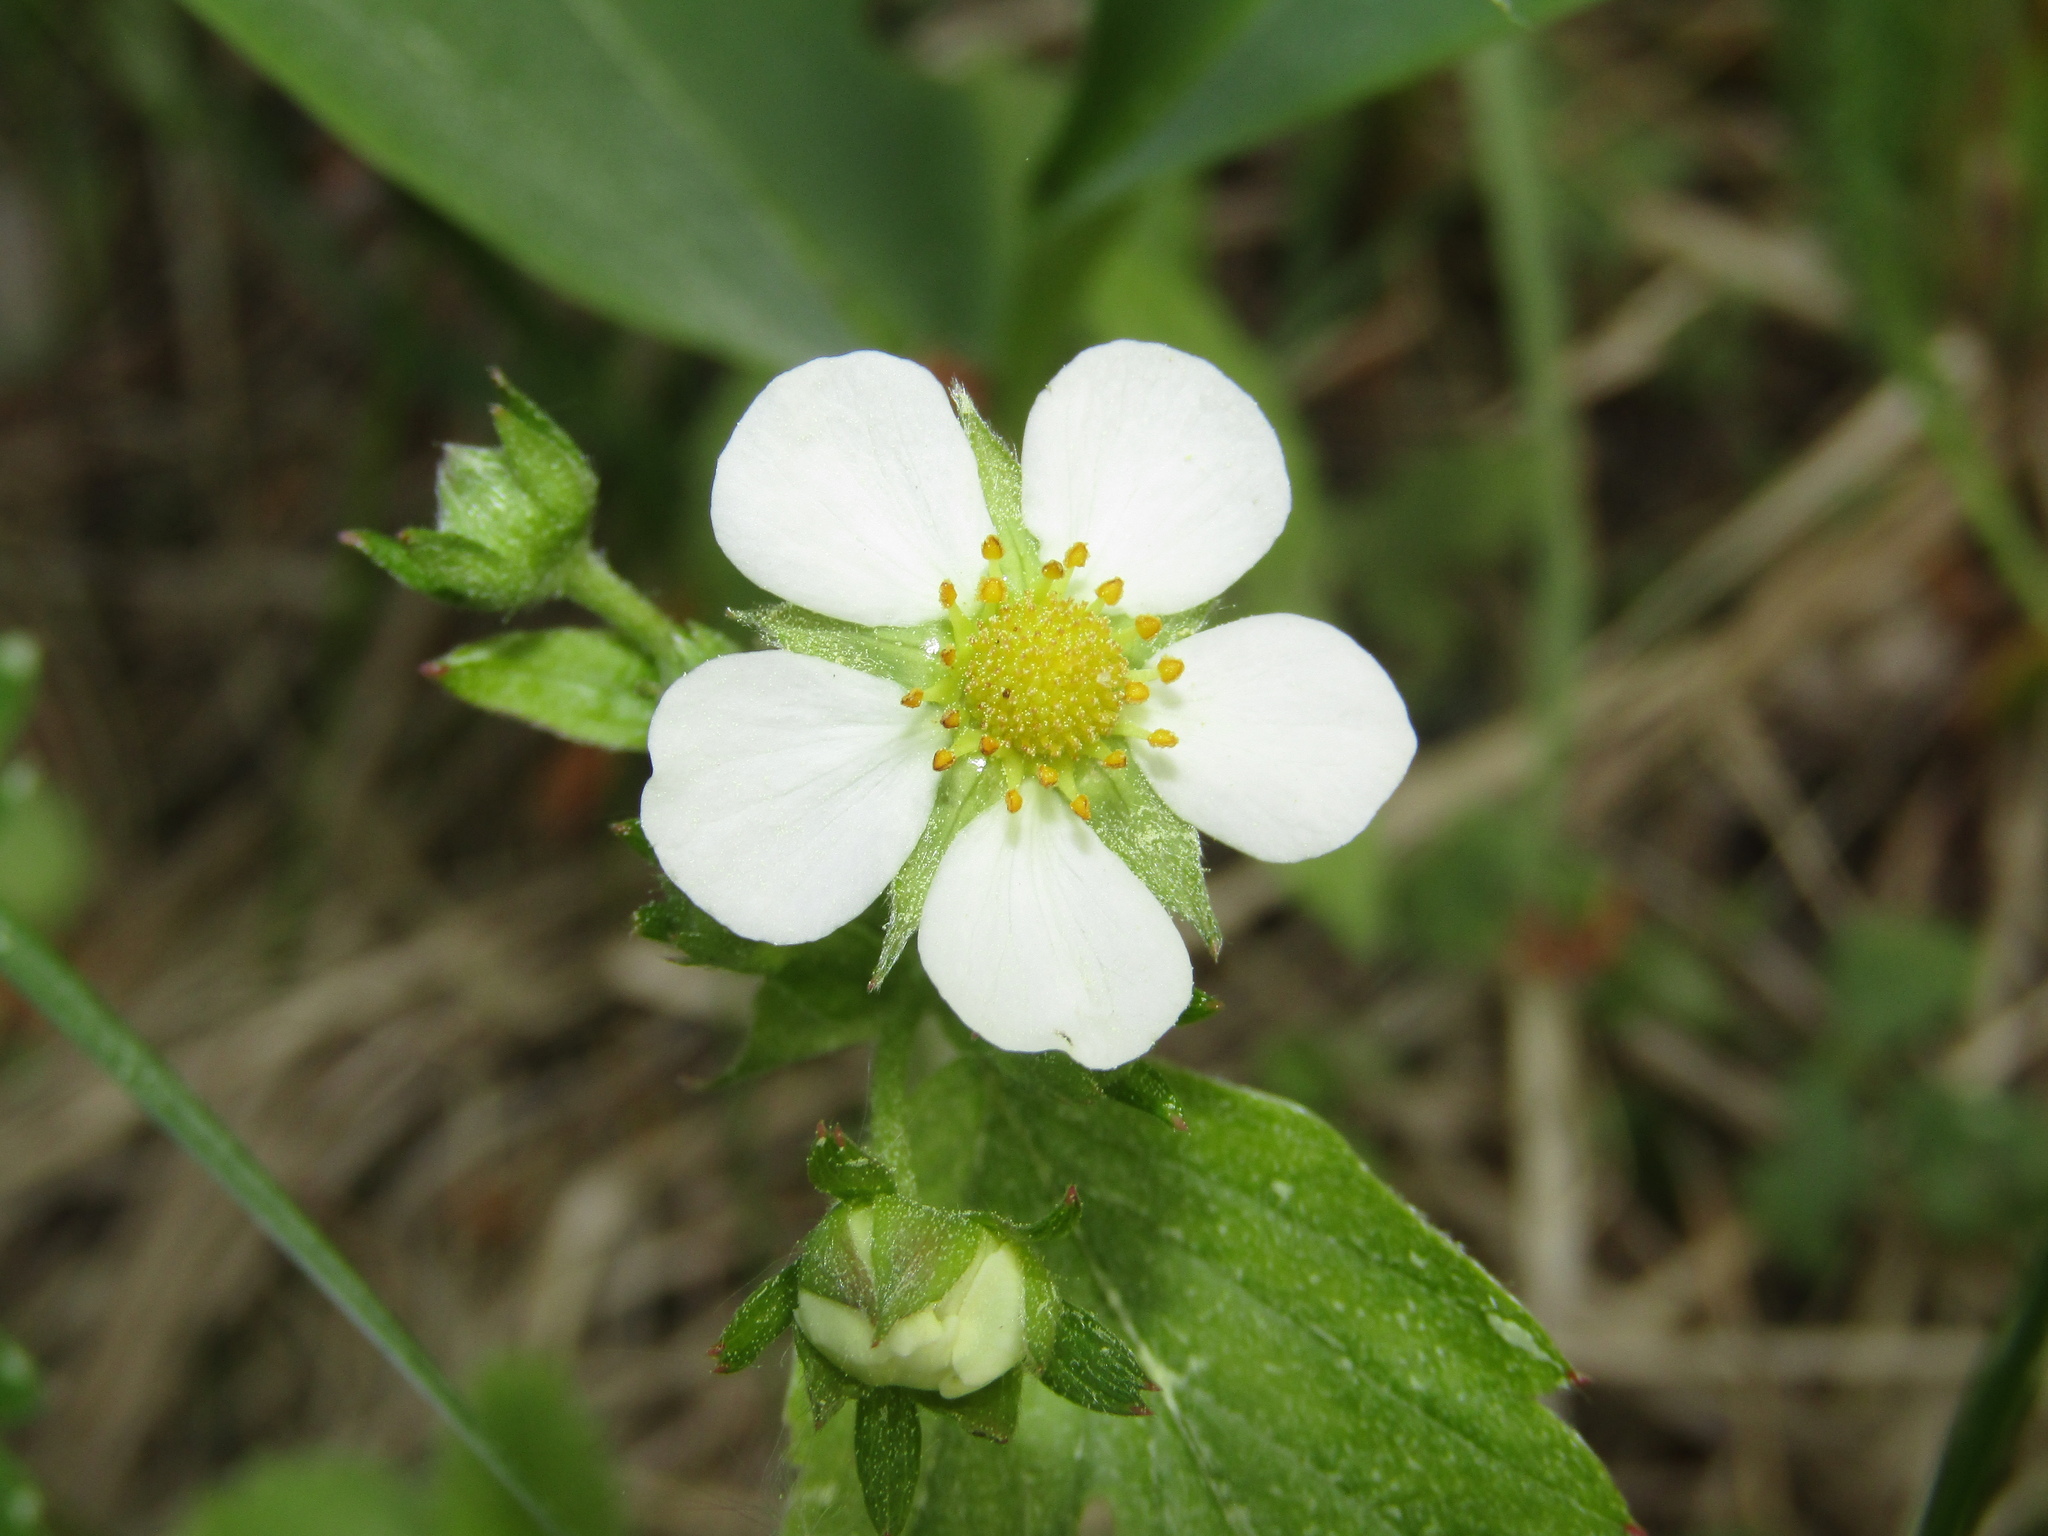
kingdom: Plantae
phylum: Tracheophyta
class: Magnoliopsida
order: Rosales
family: Rosaceae
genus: Fragaria
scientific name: Fragaria vesca
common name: Wild strawberry
